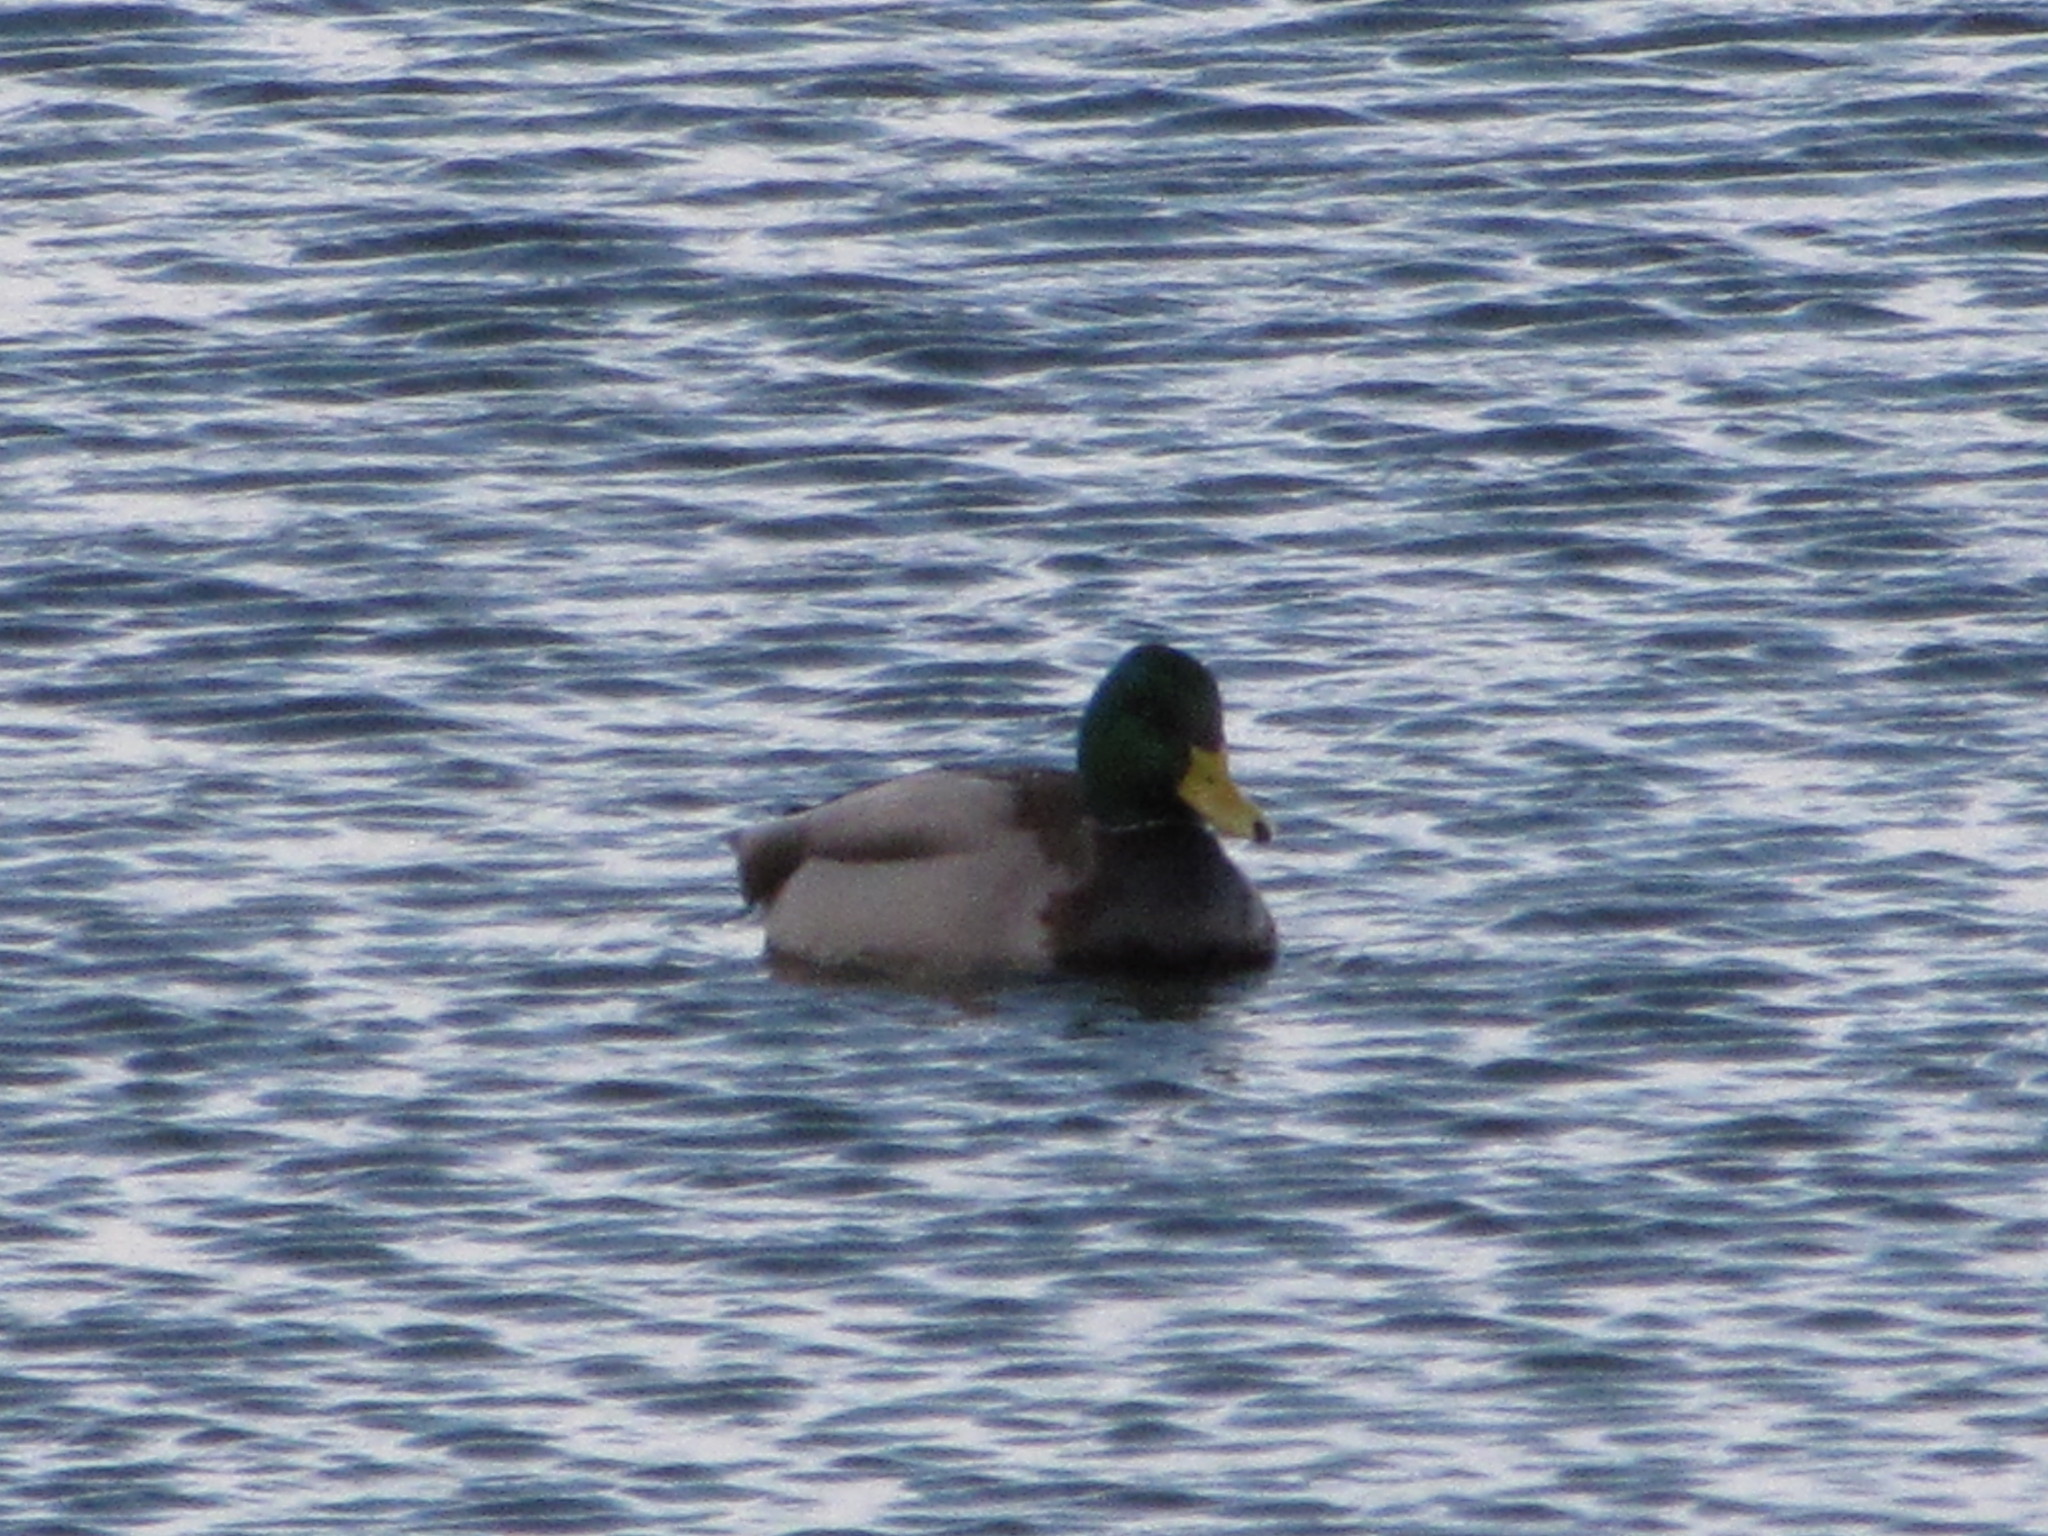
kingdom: Animalia
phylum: Chordata
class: Aves
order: Anseriformes
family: Anatidae
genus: Anas
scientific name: Anas platyrhynchos
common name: Mallard
